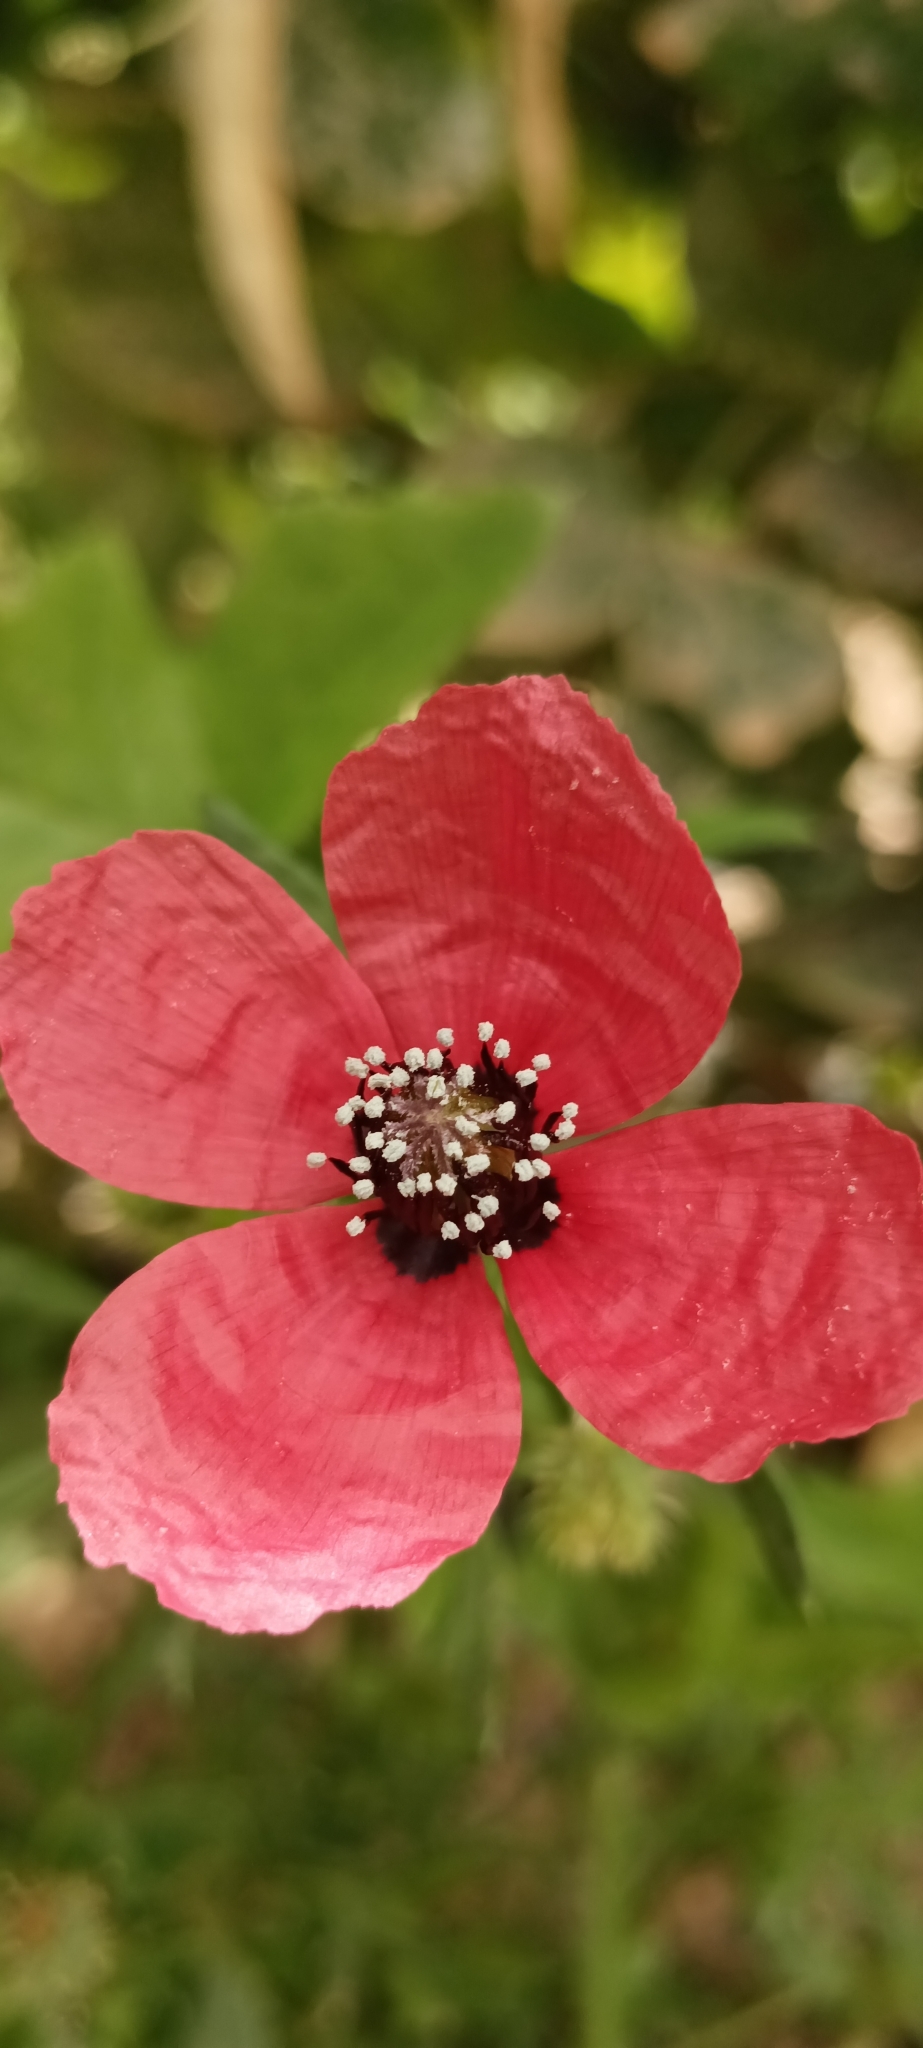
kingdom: Plantae
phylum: Tracheophyta
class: Magnoliopsida
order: Ranunculales
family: Papaveraceae
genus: Roemeria
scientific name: Roemeria hispida
